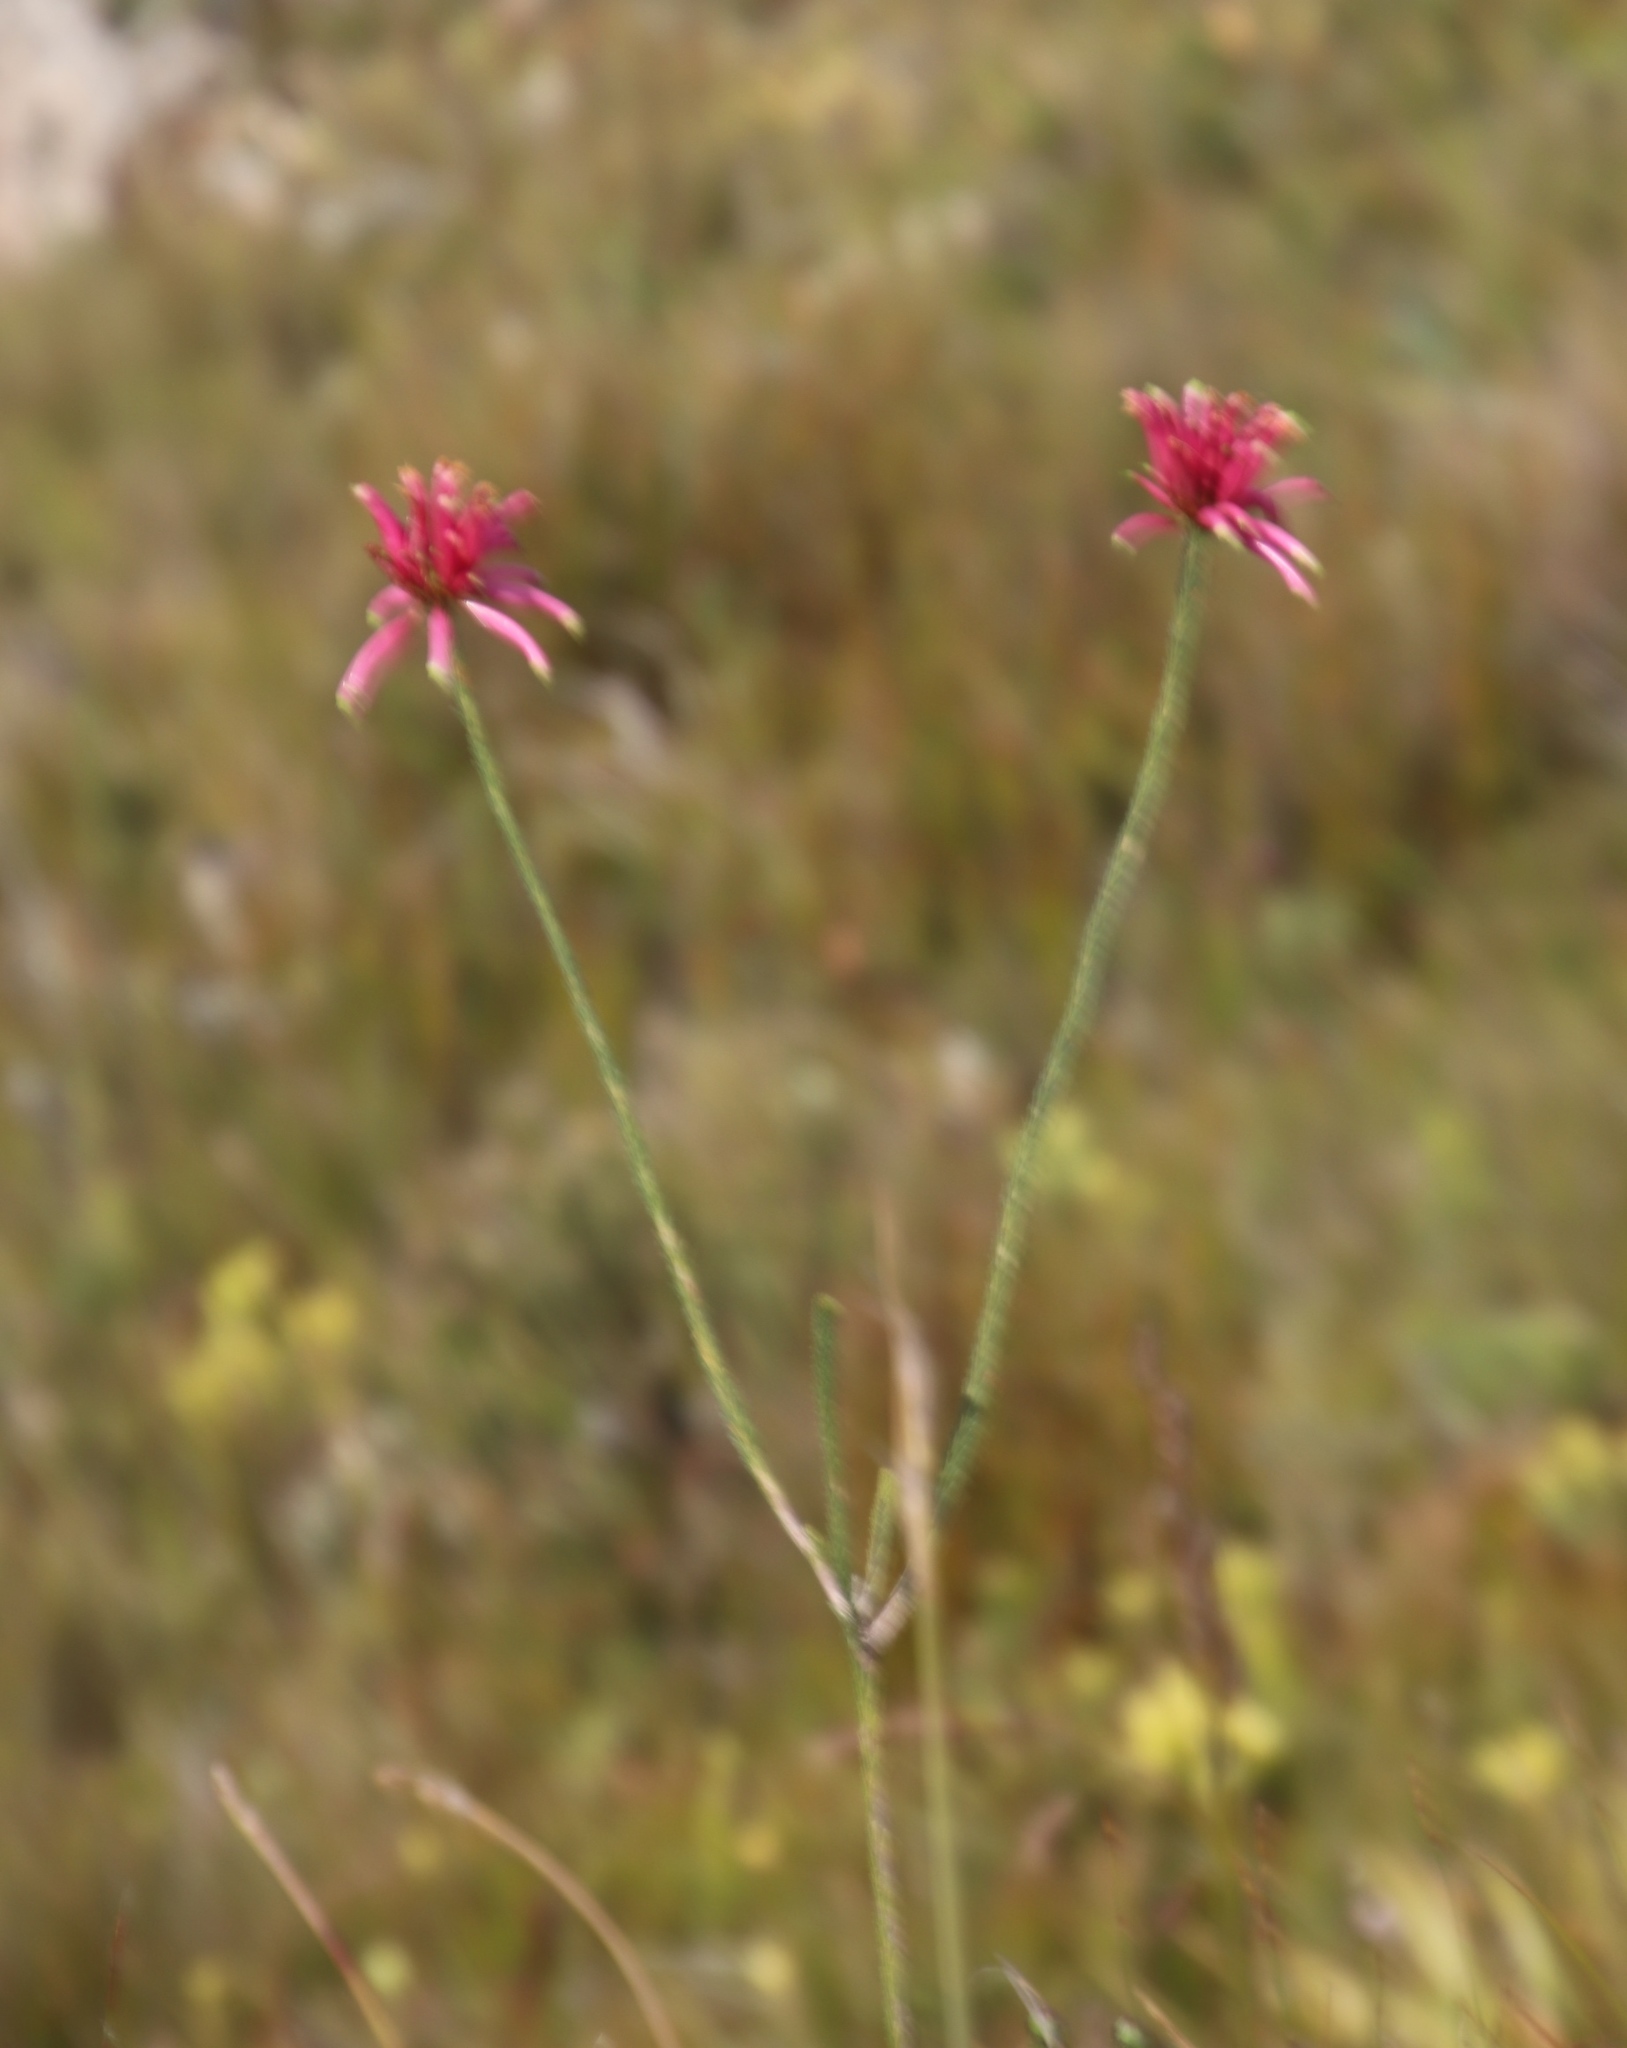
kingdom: Plantae
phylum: Tracheophyta
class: Magnoliopsida
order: Ericales
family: Ericaceae
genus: Erica
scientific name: Erica fascicularis
